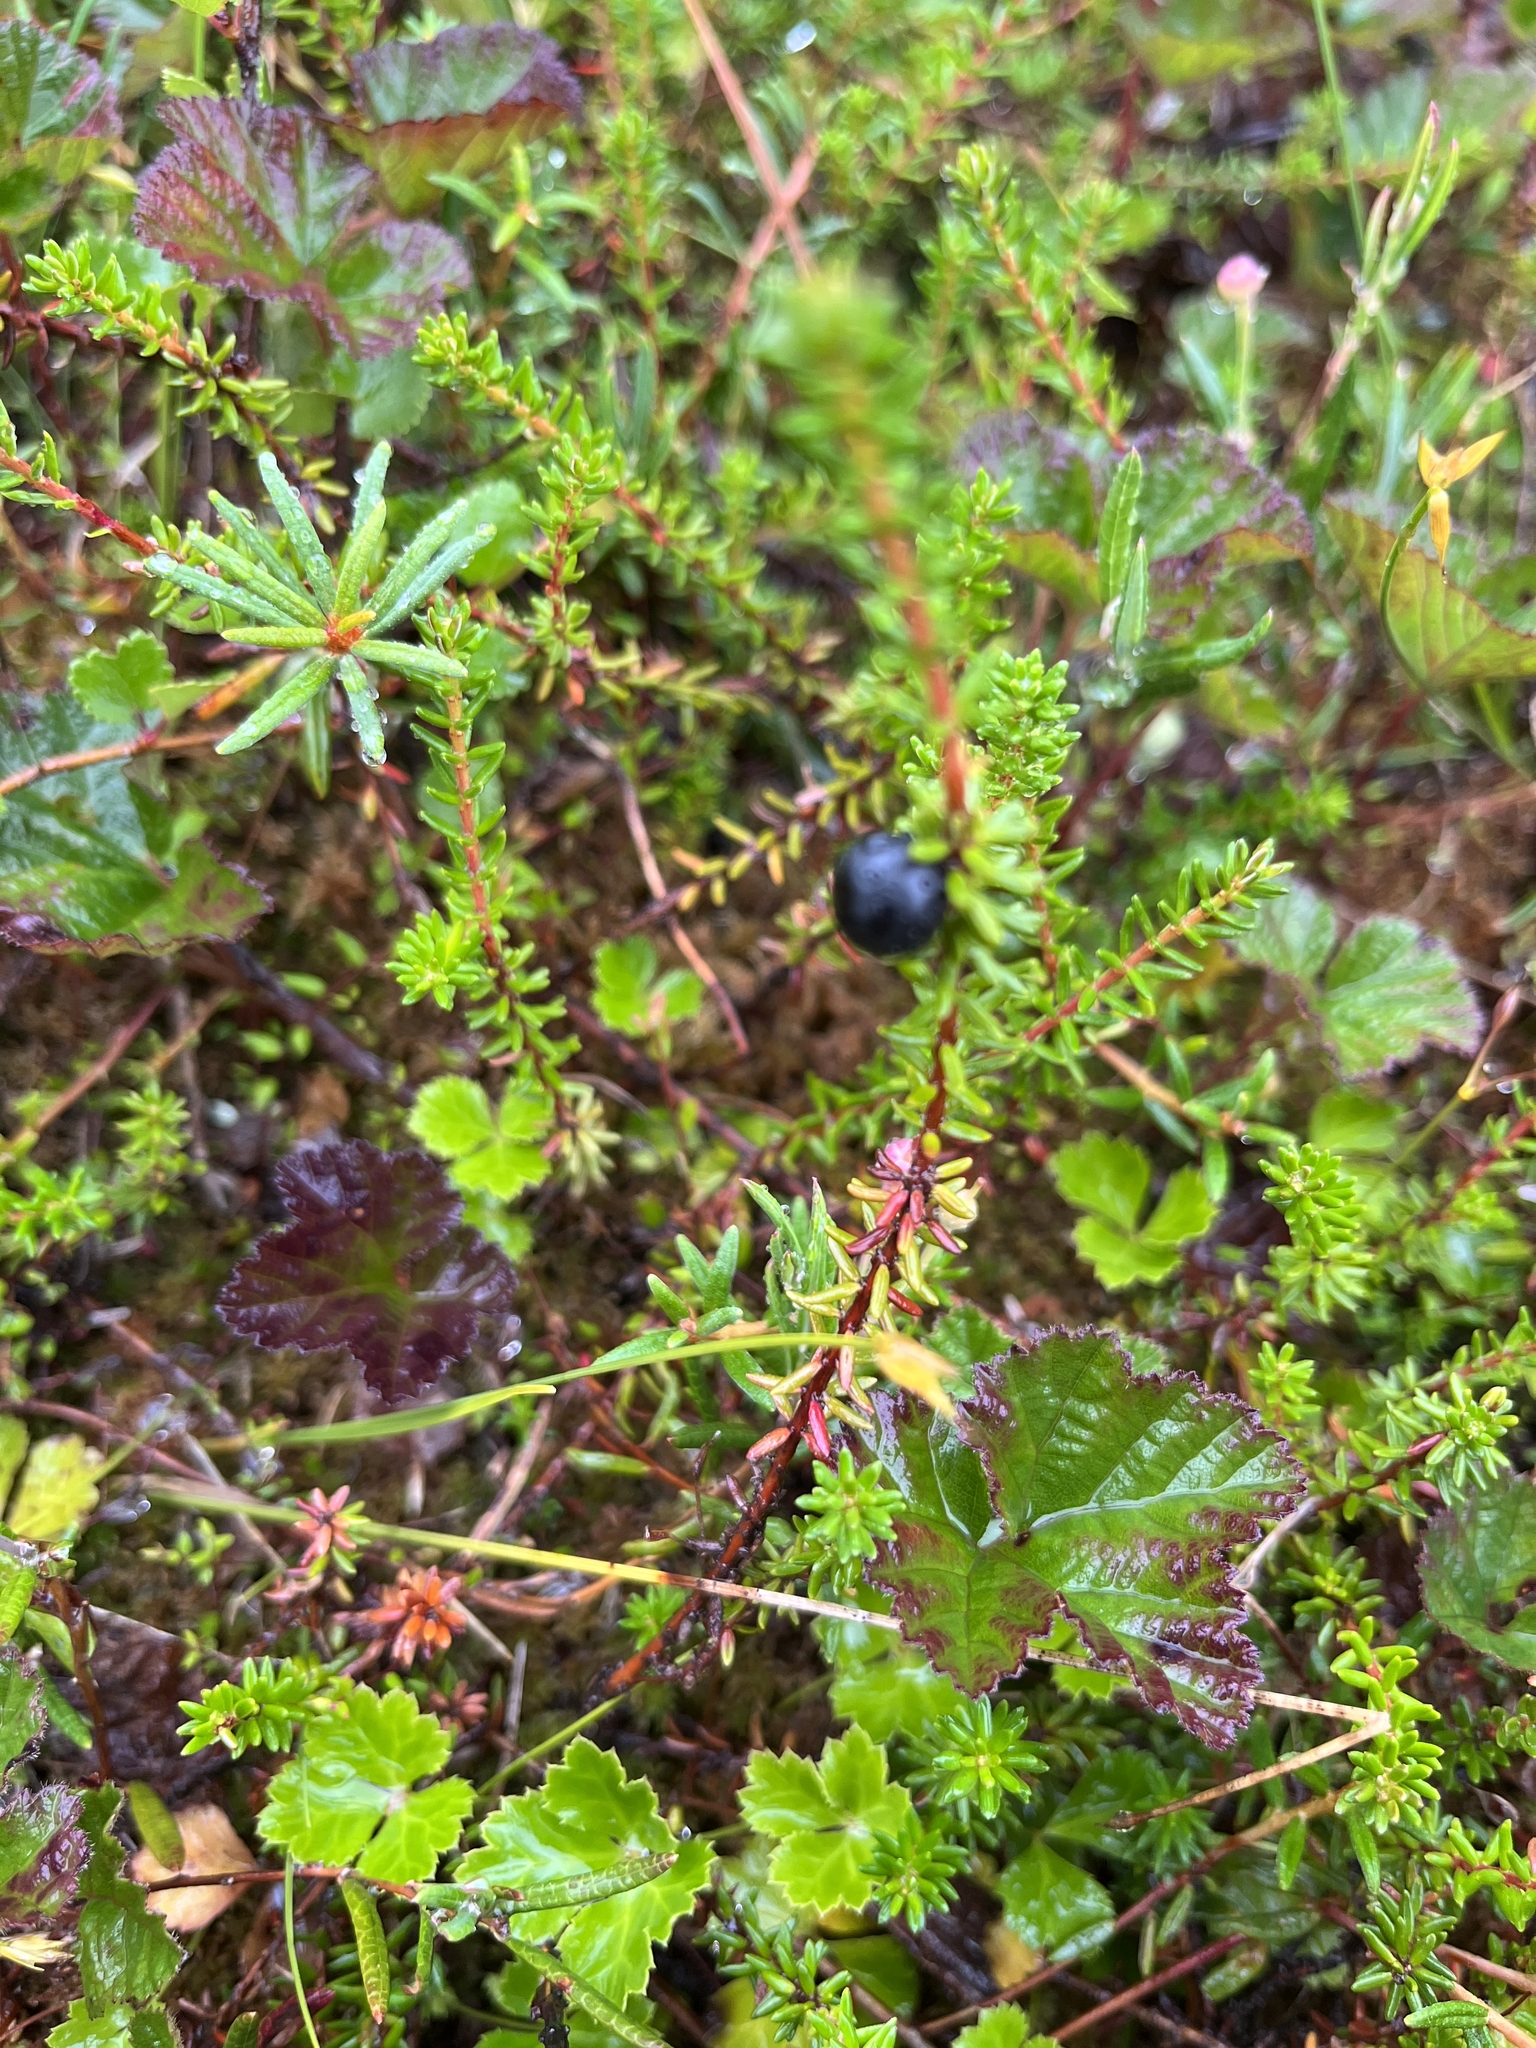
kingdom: Plantae
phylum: Tracheophyta
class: Magnoliopsida
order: Ericales
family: Ericaceae
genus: Empetrum
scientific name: Empetrum nigrum
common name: Black crowberry
